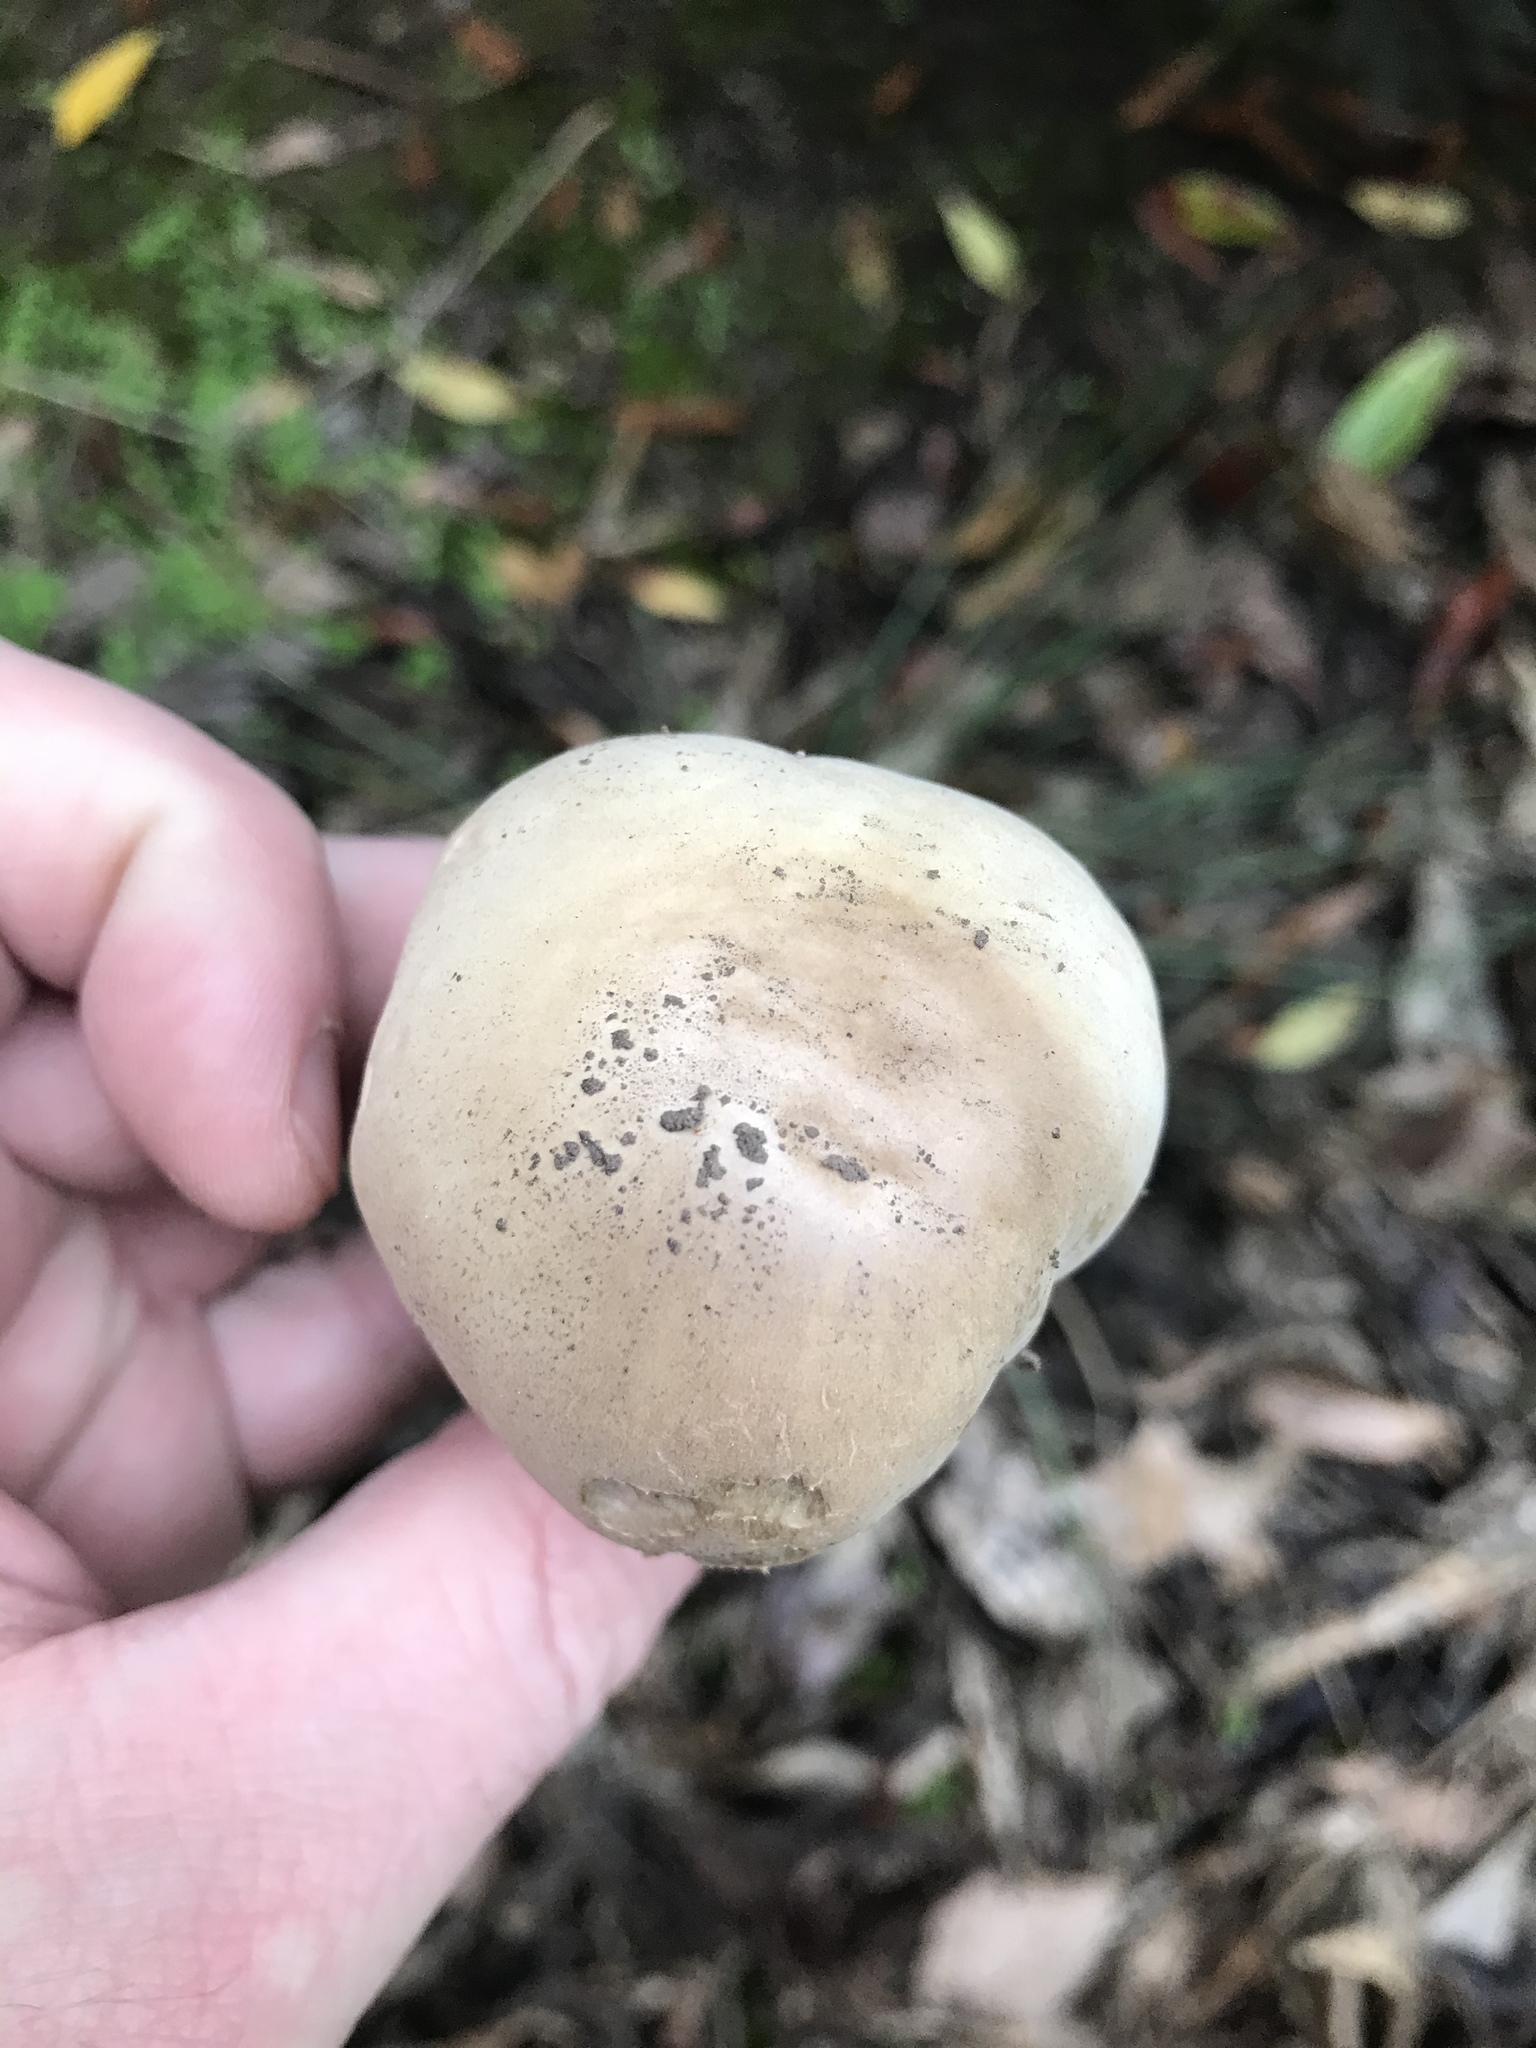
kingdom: Fungi
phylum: Basidiomycota
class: Agaricomycetes
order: Agaricales
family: Agaricaceae
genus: Agaricus
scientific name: Agaricus xanthodermus
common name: Yellow stainer
